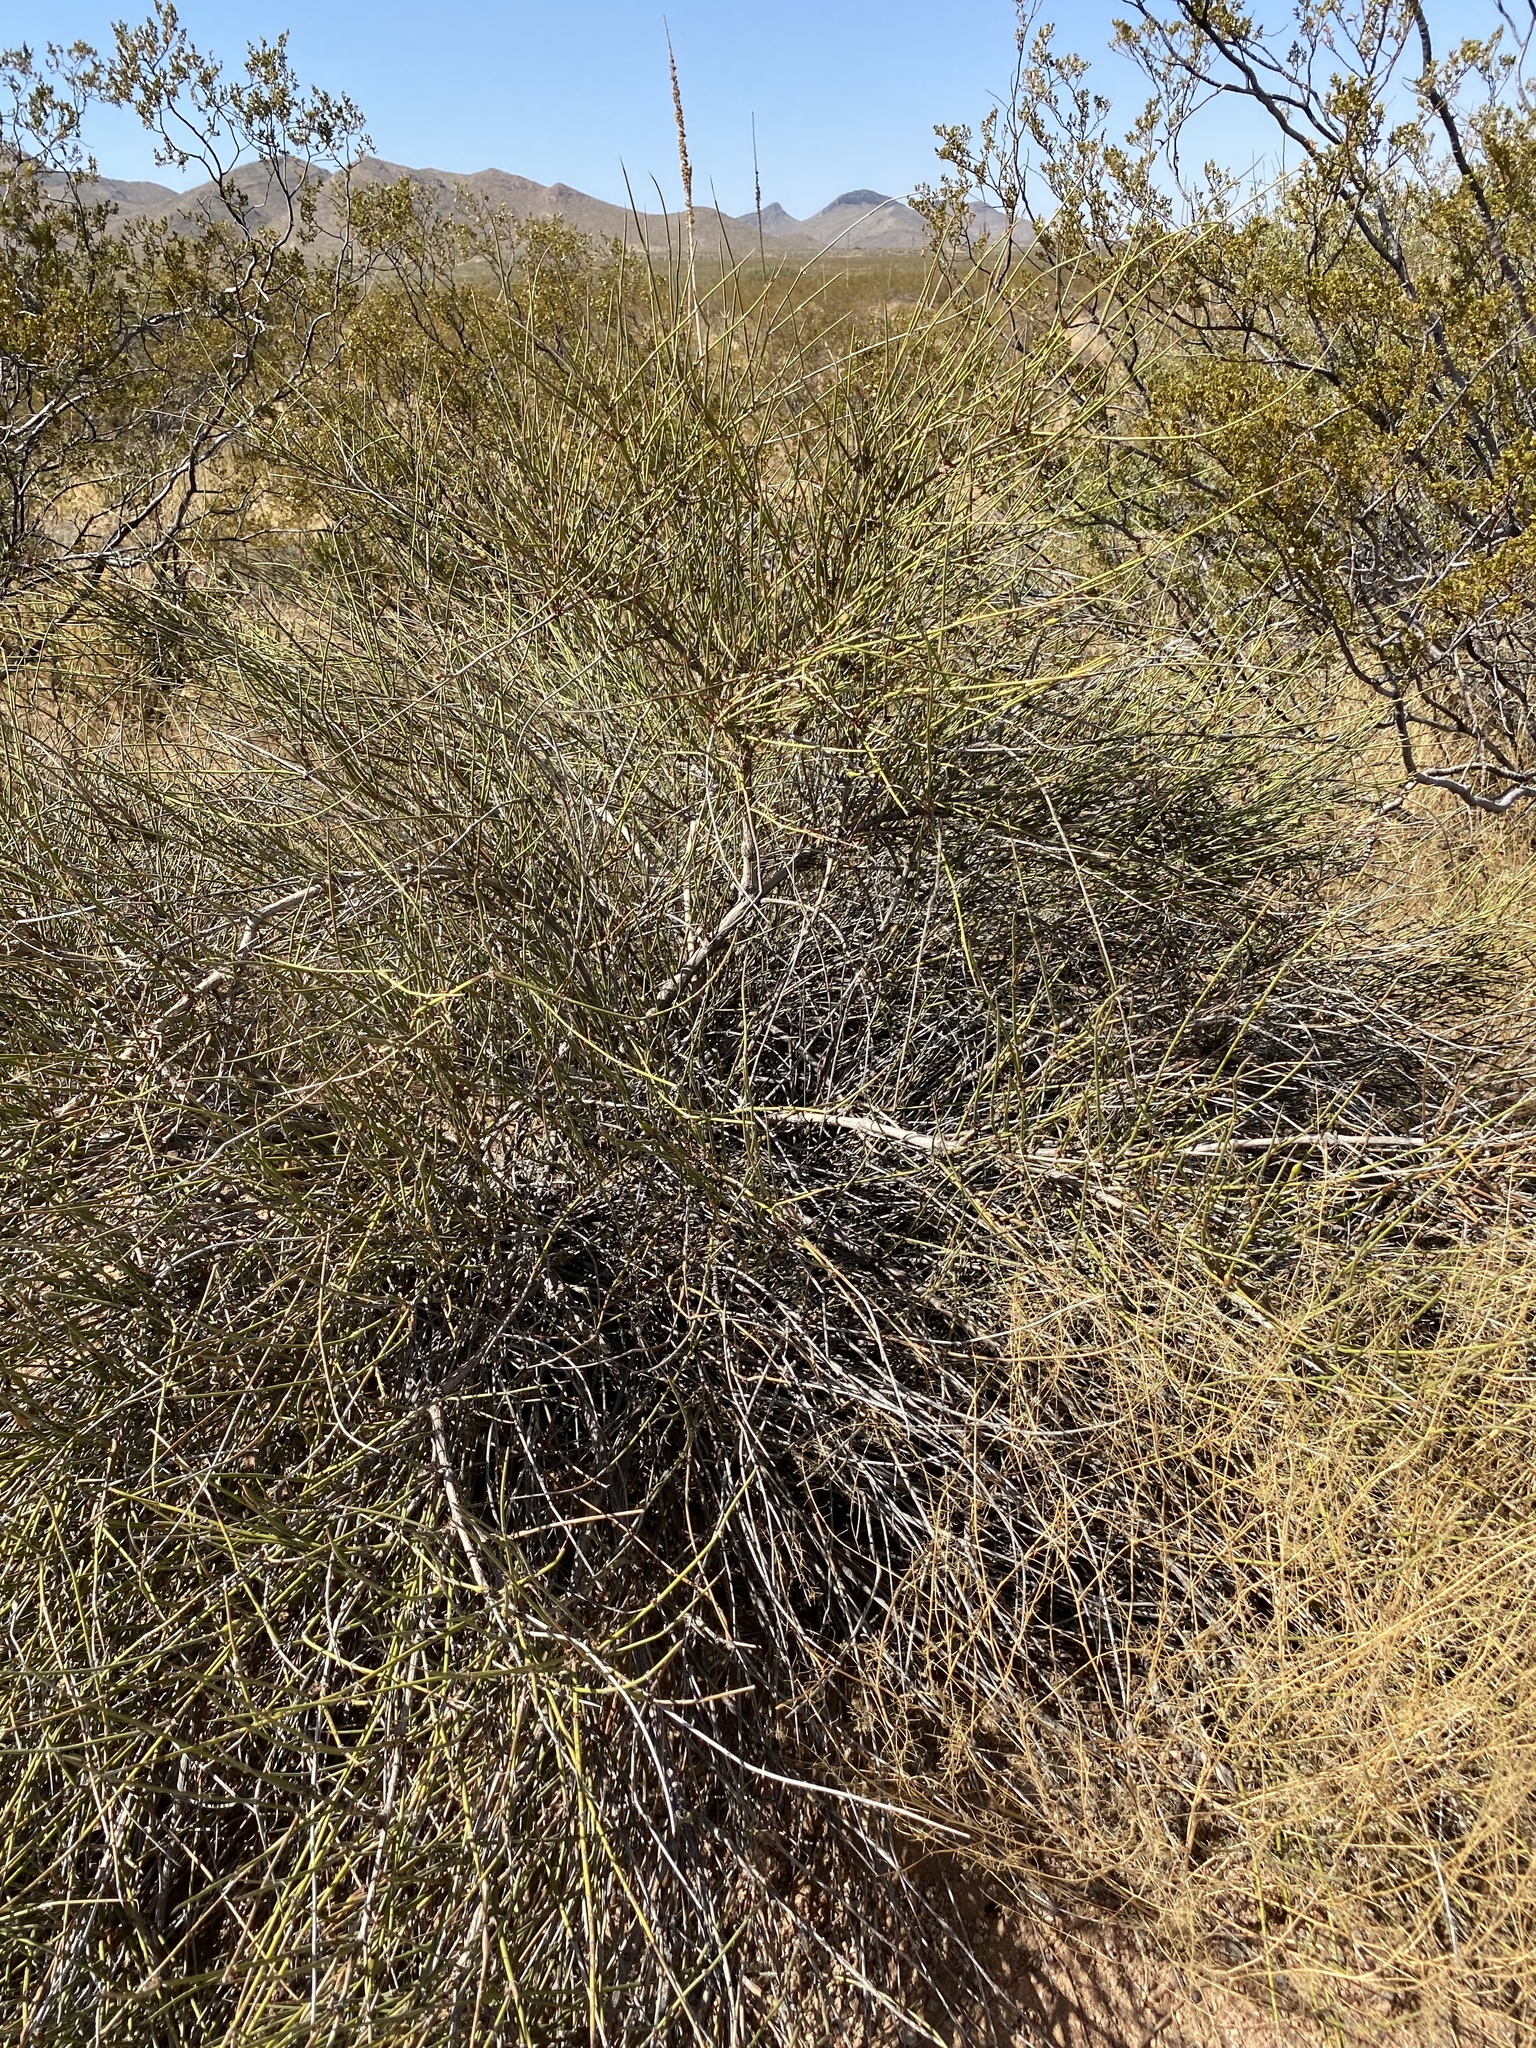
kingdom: Plantae
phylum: Tracheophyta
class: Gnetopsida
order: Ephedrales
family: Ephedraceae
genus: Ephedra
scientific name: Ephedra trifurca
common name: Mexican-tea
